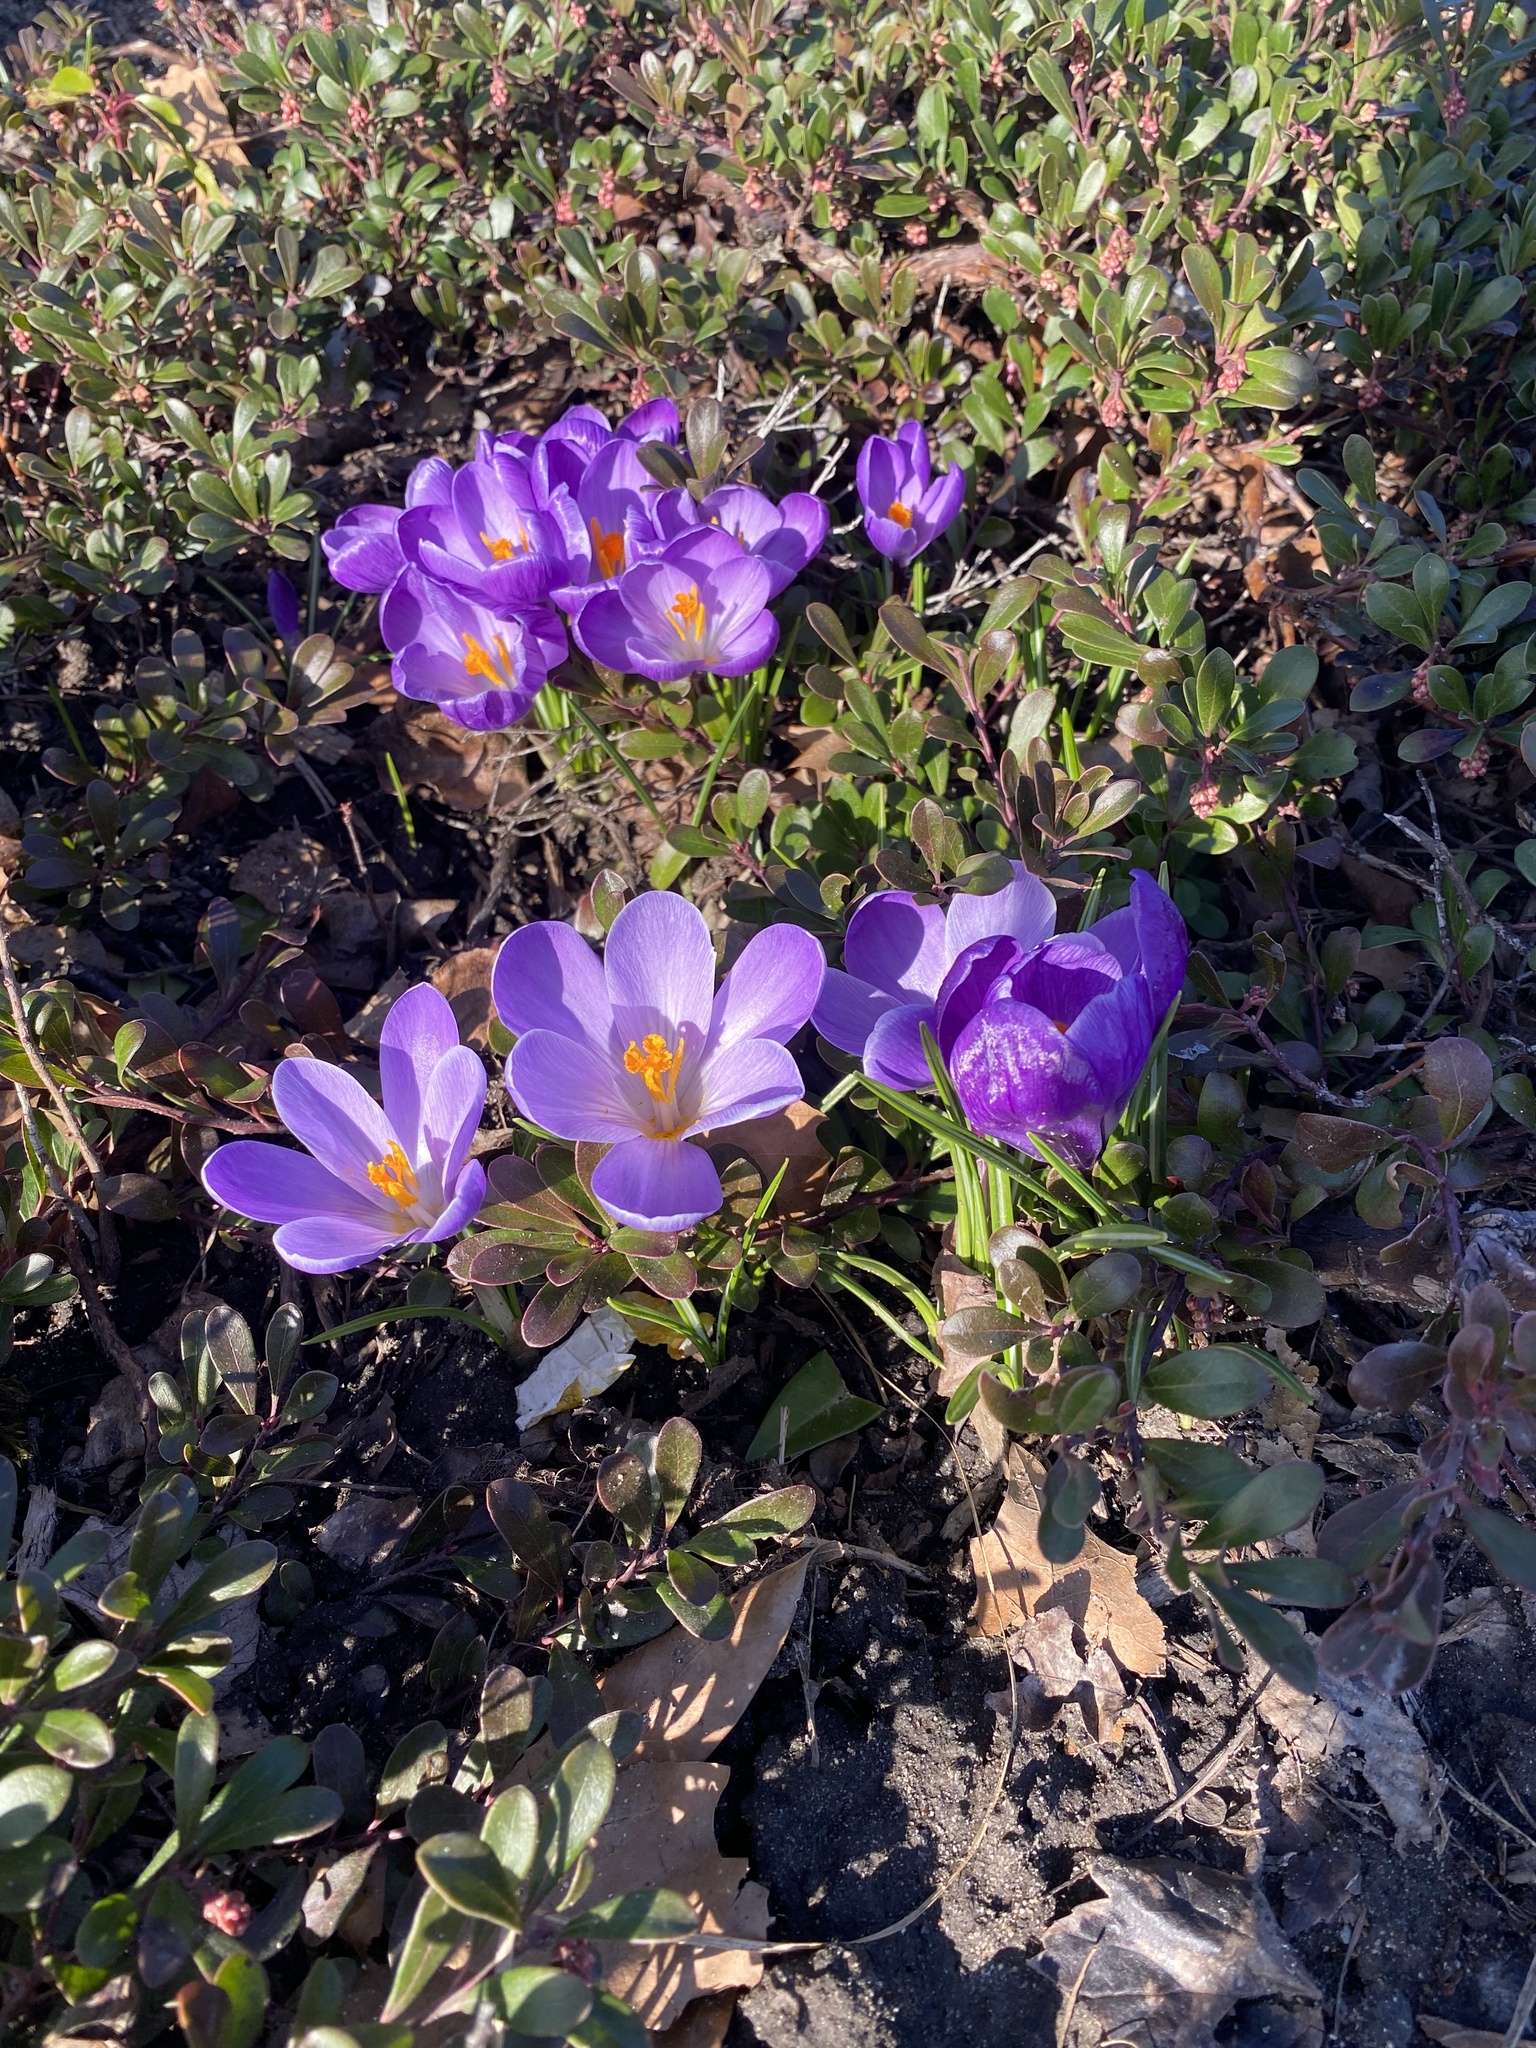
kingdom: Plantae
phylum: Tracheophyta
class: Liliopsida
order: Asparagales
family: Iridaceae
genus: Crocus
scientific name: Crocus tommasinianus
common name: Early crocus
